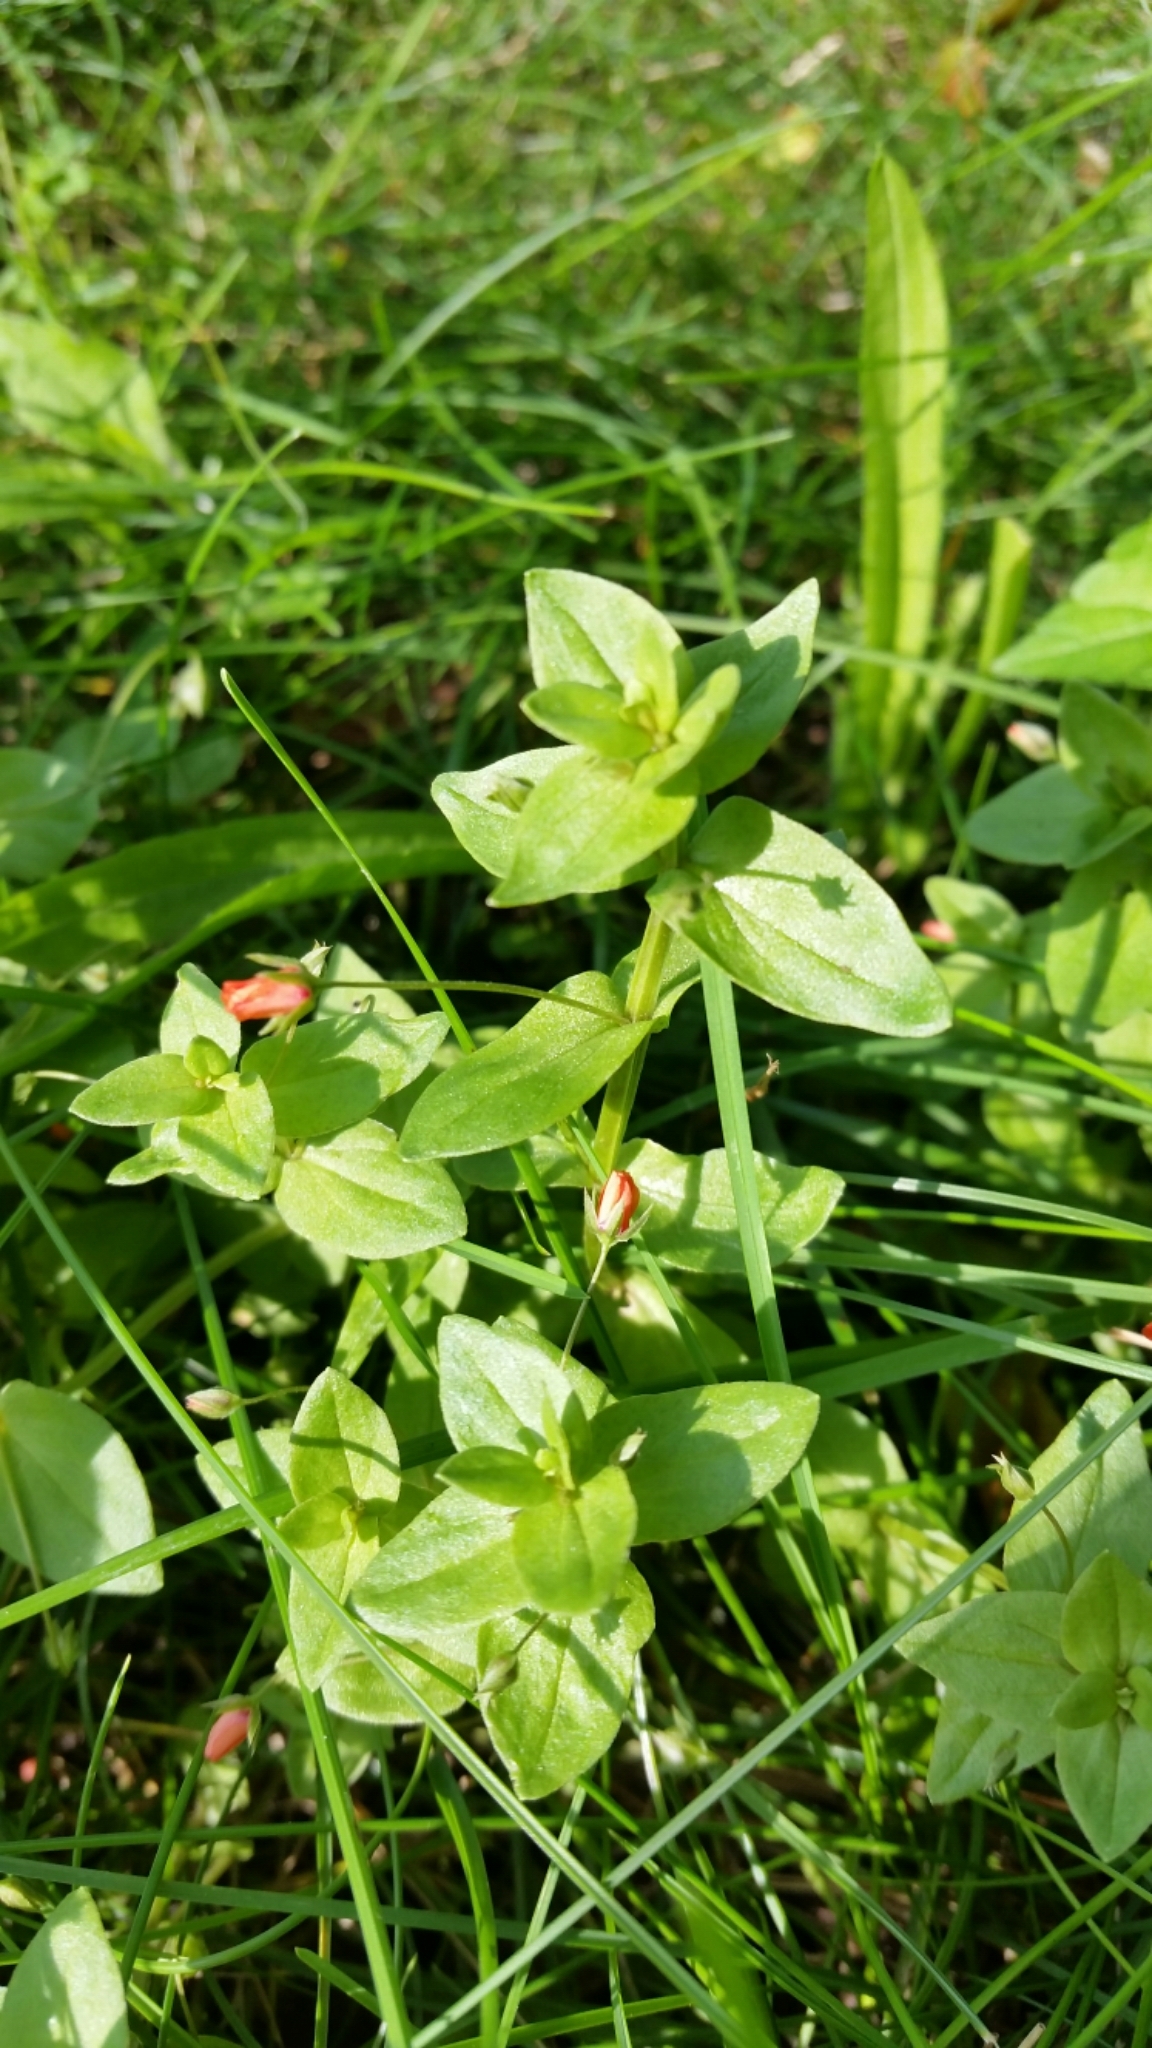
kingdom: Plantae
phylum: Tracheophyta
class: Magnoliopsida
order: Ericales
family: Primulaceae
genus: Lysimachia
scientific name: Lysimachia arvensis
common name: Scarlet pimpernel
